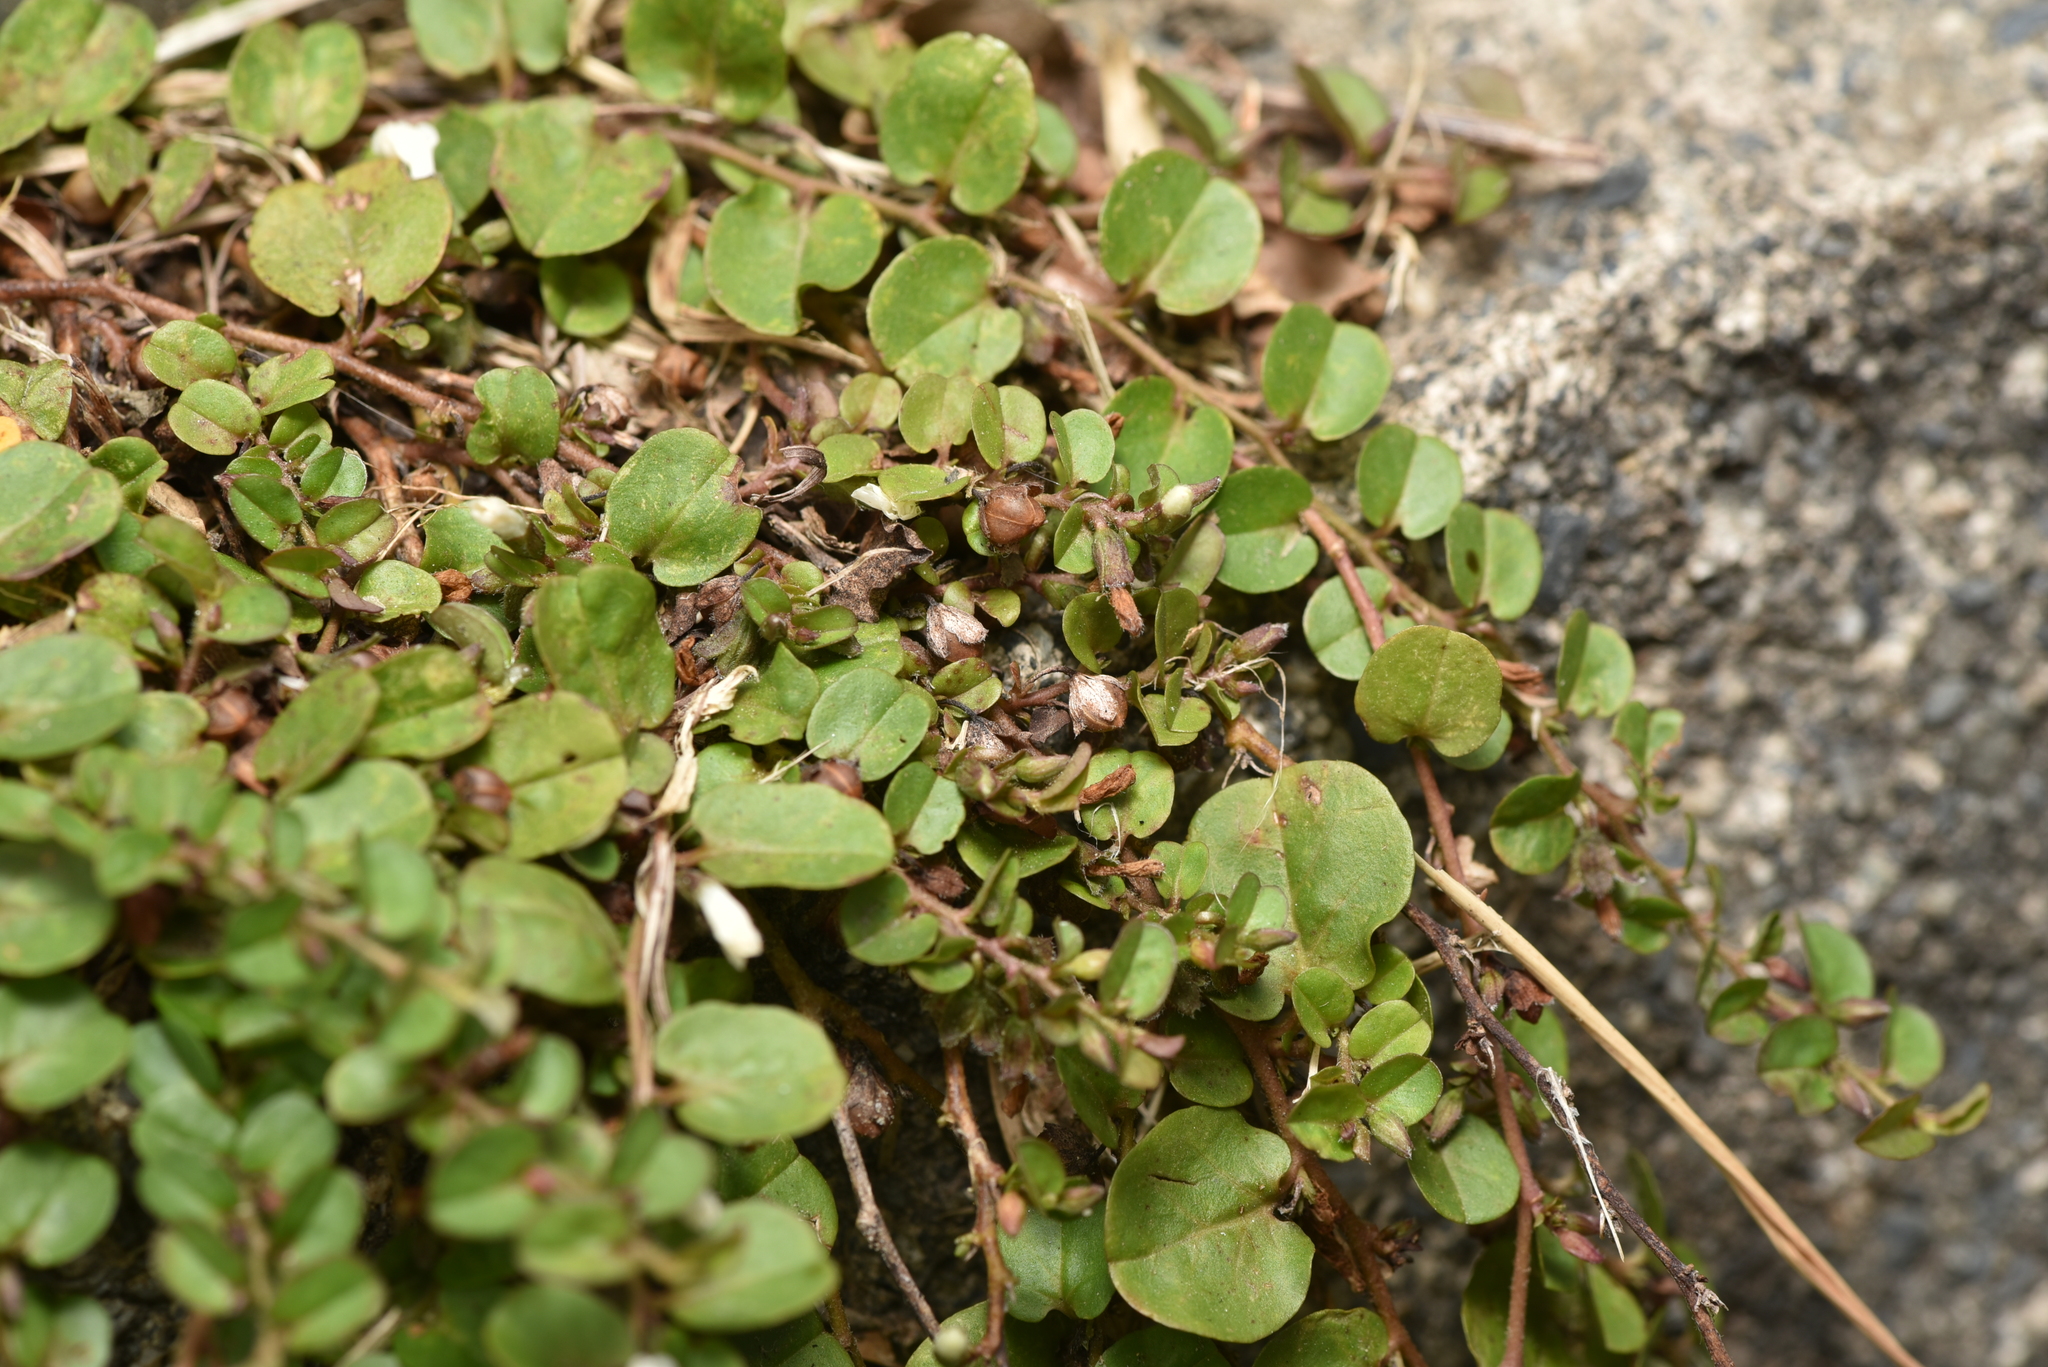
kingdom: Plantae
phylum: Tracheophyta
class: Magnoliopsida
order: Solanales
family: Convolvulaceae
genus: Evolvulus
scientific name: Evolvulus nummularius
